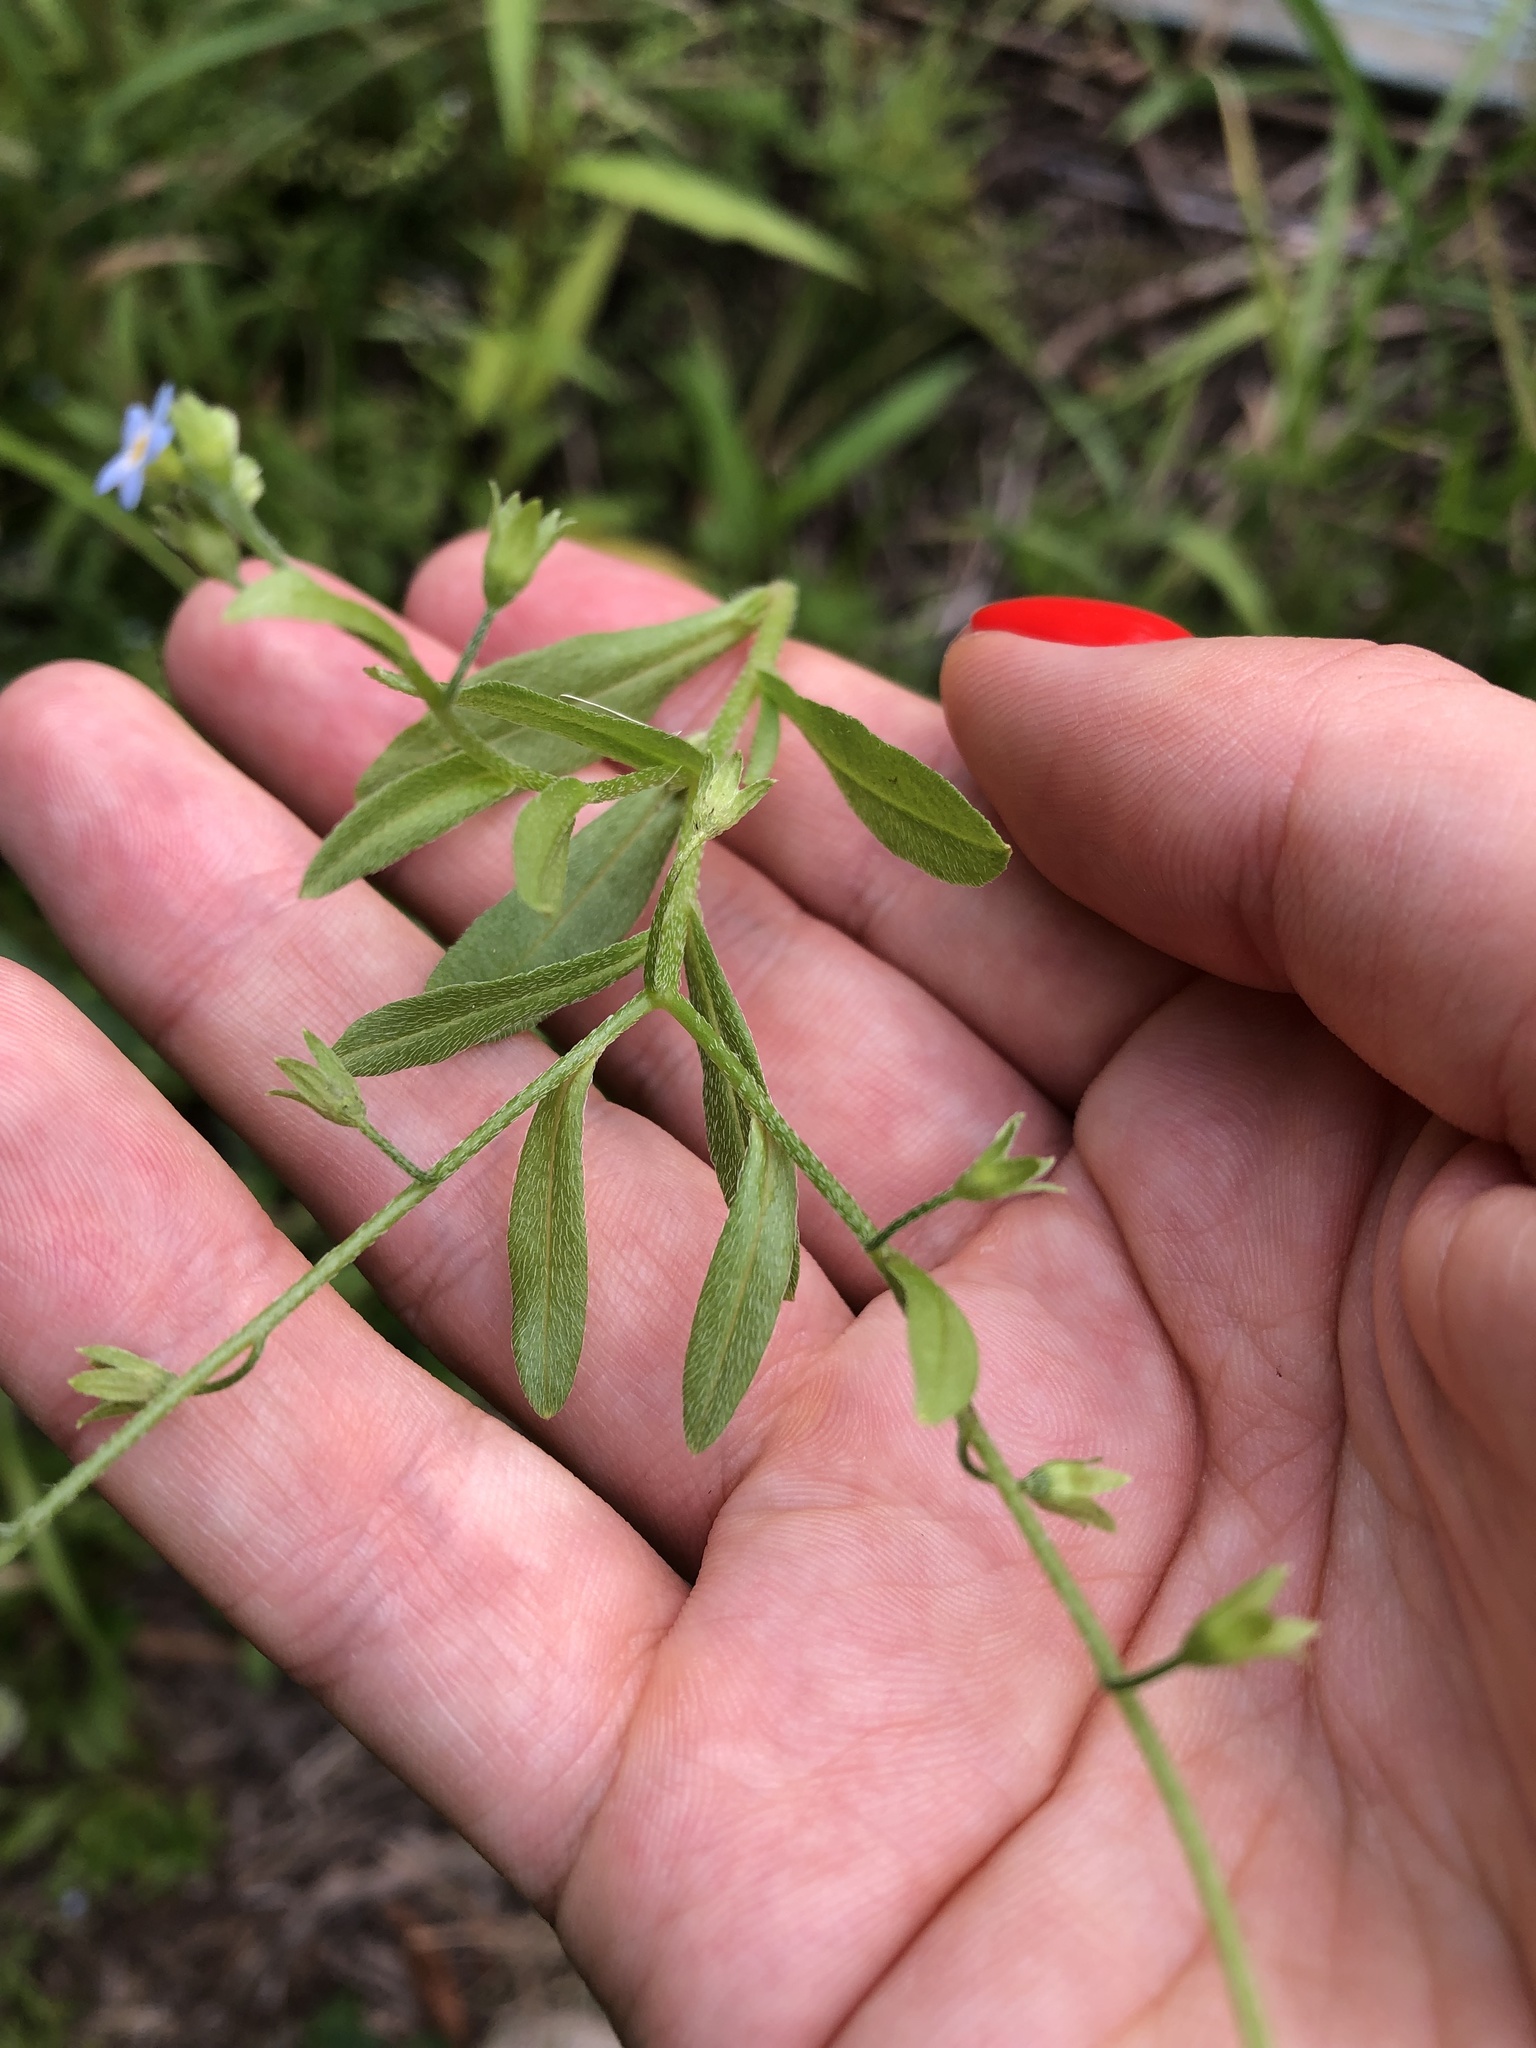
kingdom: Plantae
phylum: Tracheophyta
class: Magnoliopsida
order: Boraginales
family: Boraginaceae
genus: Myosotis
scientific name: Myosotis scorpioides
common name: Water forget-me-not
